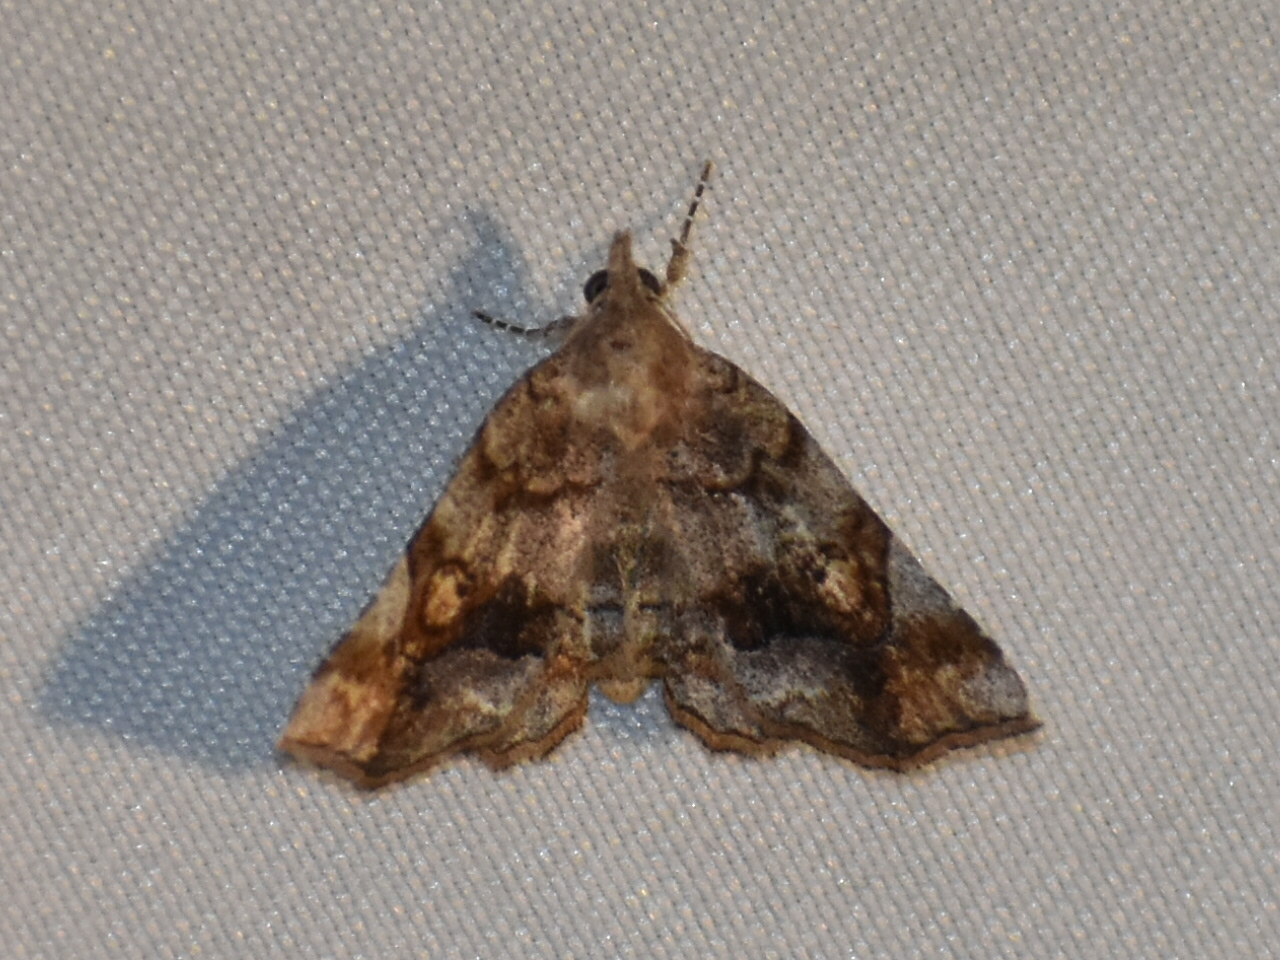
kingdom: Animalia
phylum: Arthropoda
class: Insecta
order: Lepidoptera
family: Erebidae
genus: Pangrapta
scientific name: Pangrapta decoralis
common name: Decorated owlet
